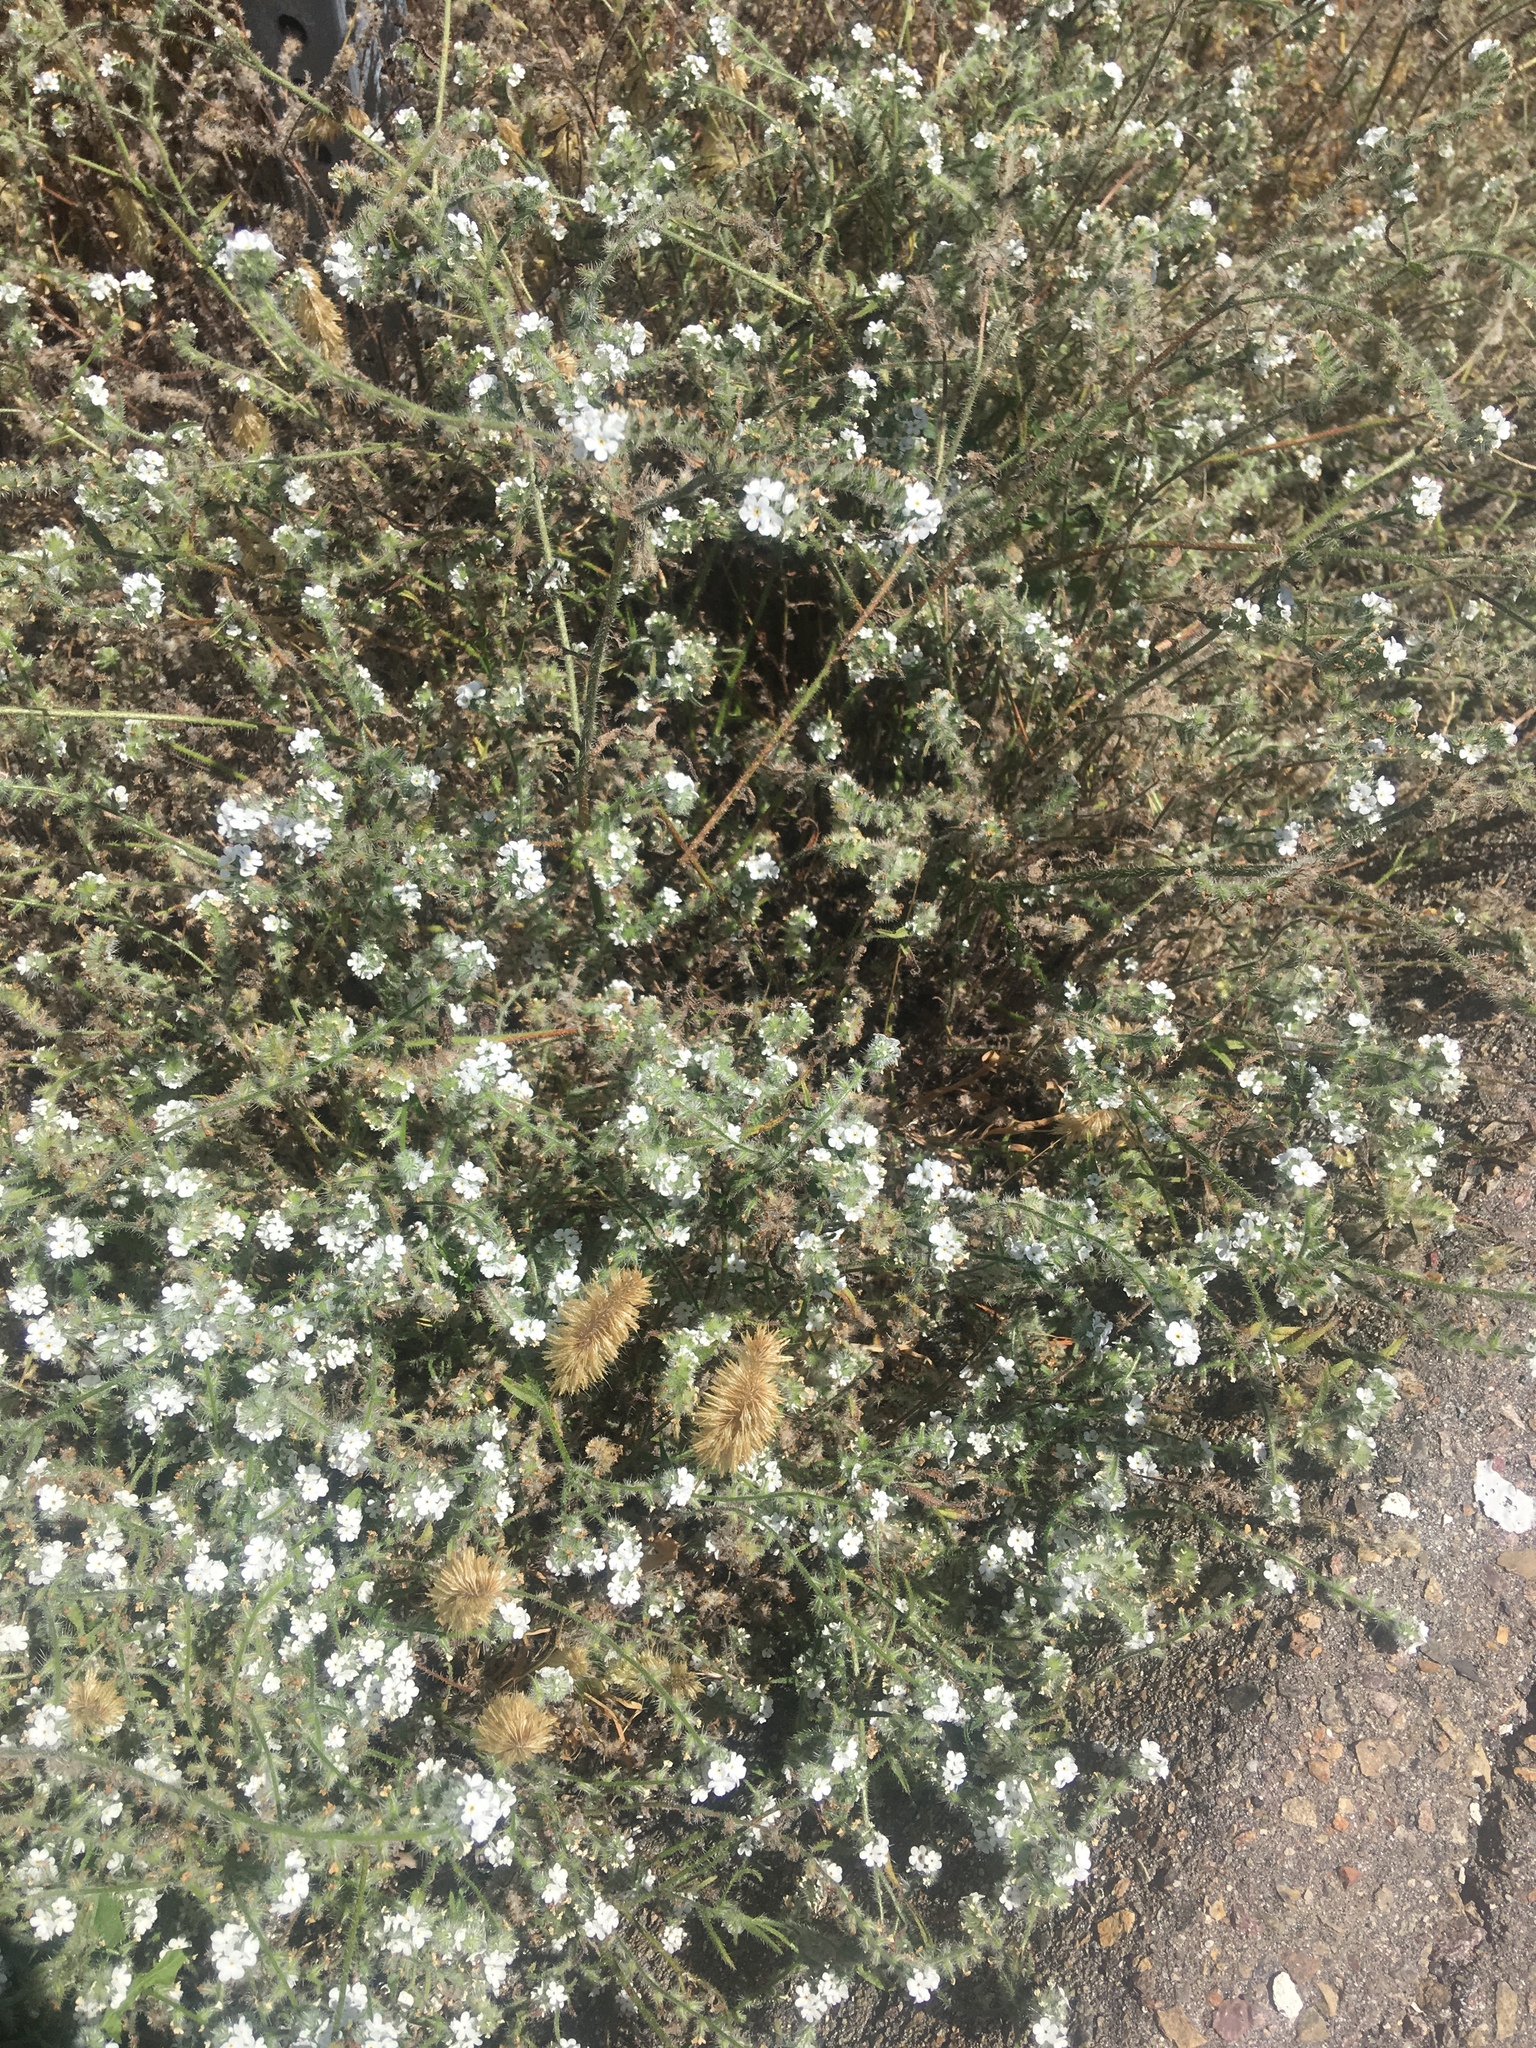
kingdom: Plantae
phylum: Tracheophyta
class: Magnoliopsida
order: Boraginales
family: Boraginaceae
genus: Cryptantha
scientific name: Cryptantha intermedia
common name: Clearwater cryptantha
